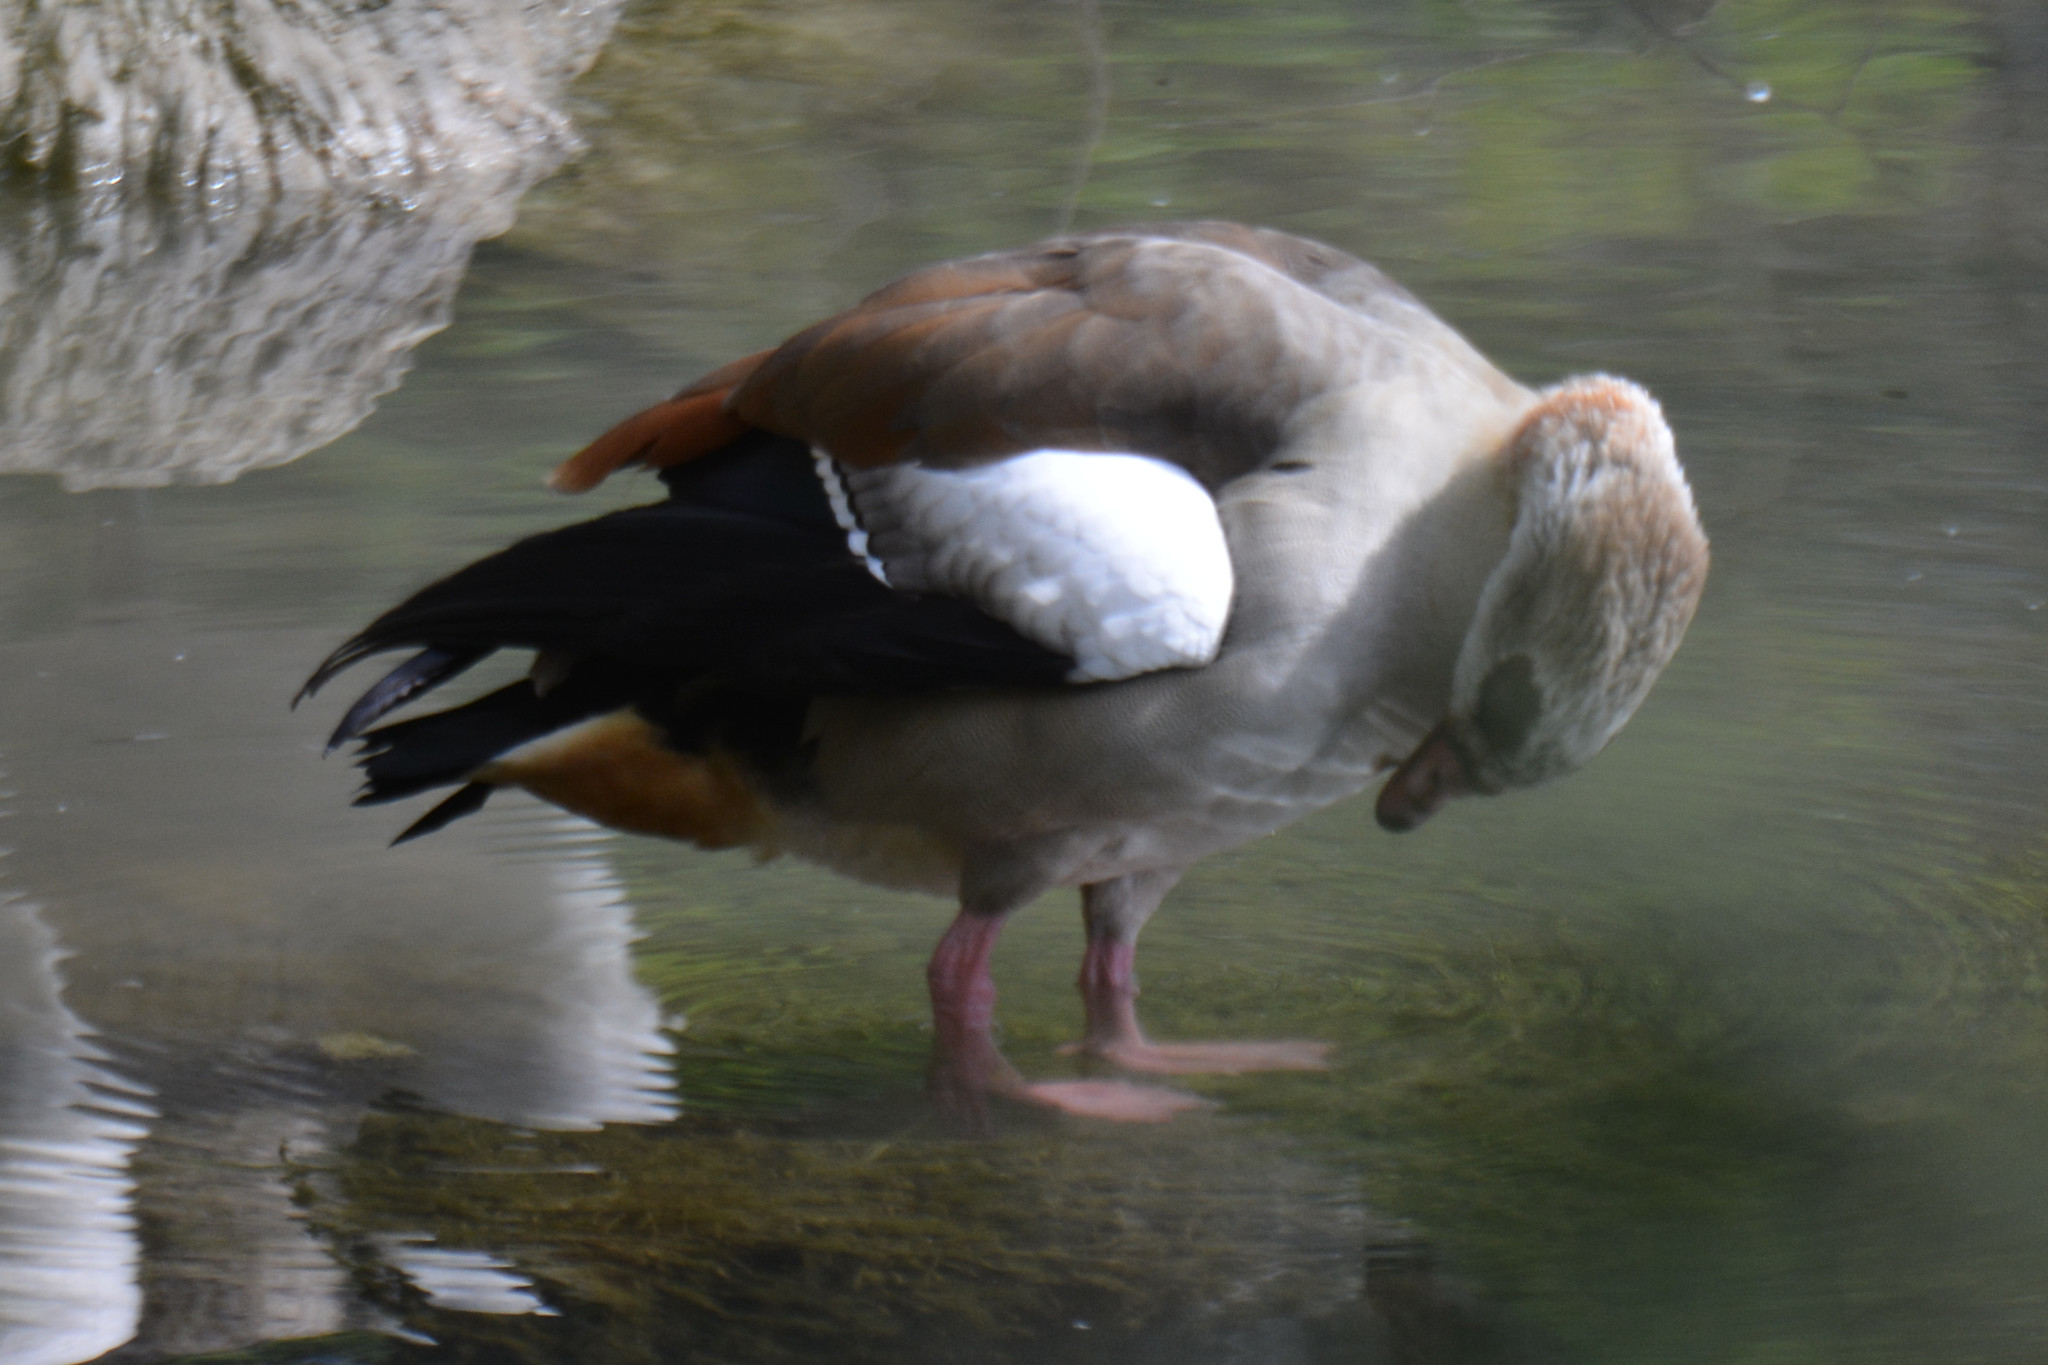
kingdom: Animalia
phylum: Chordata
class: Aves
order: Anseriformes
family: Anatidae
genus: Alopochen
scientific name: Alopochen aegyptiaca
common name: Egyptian goose
